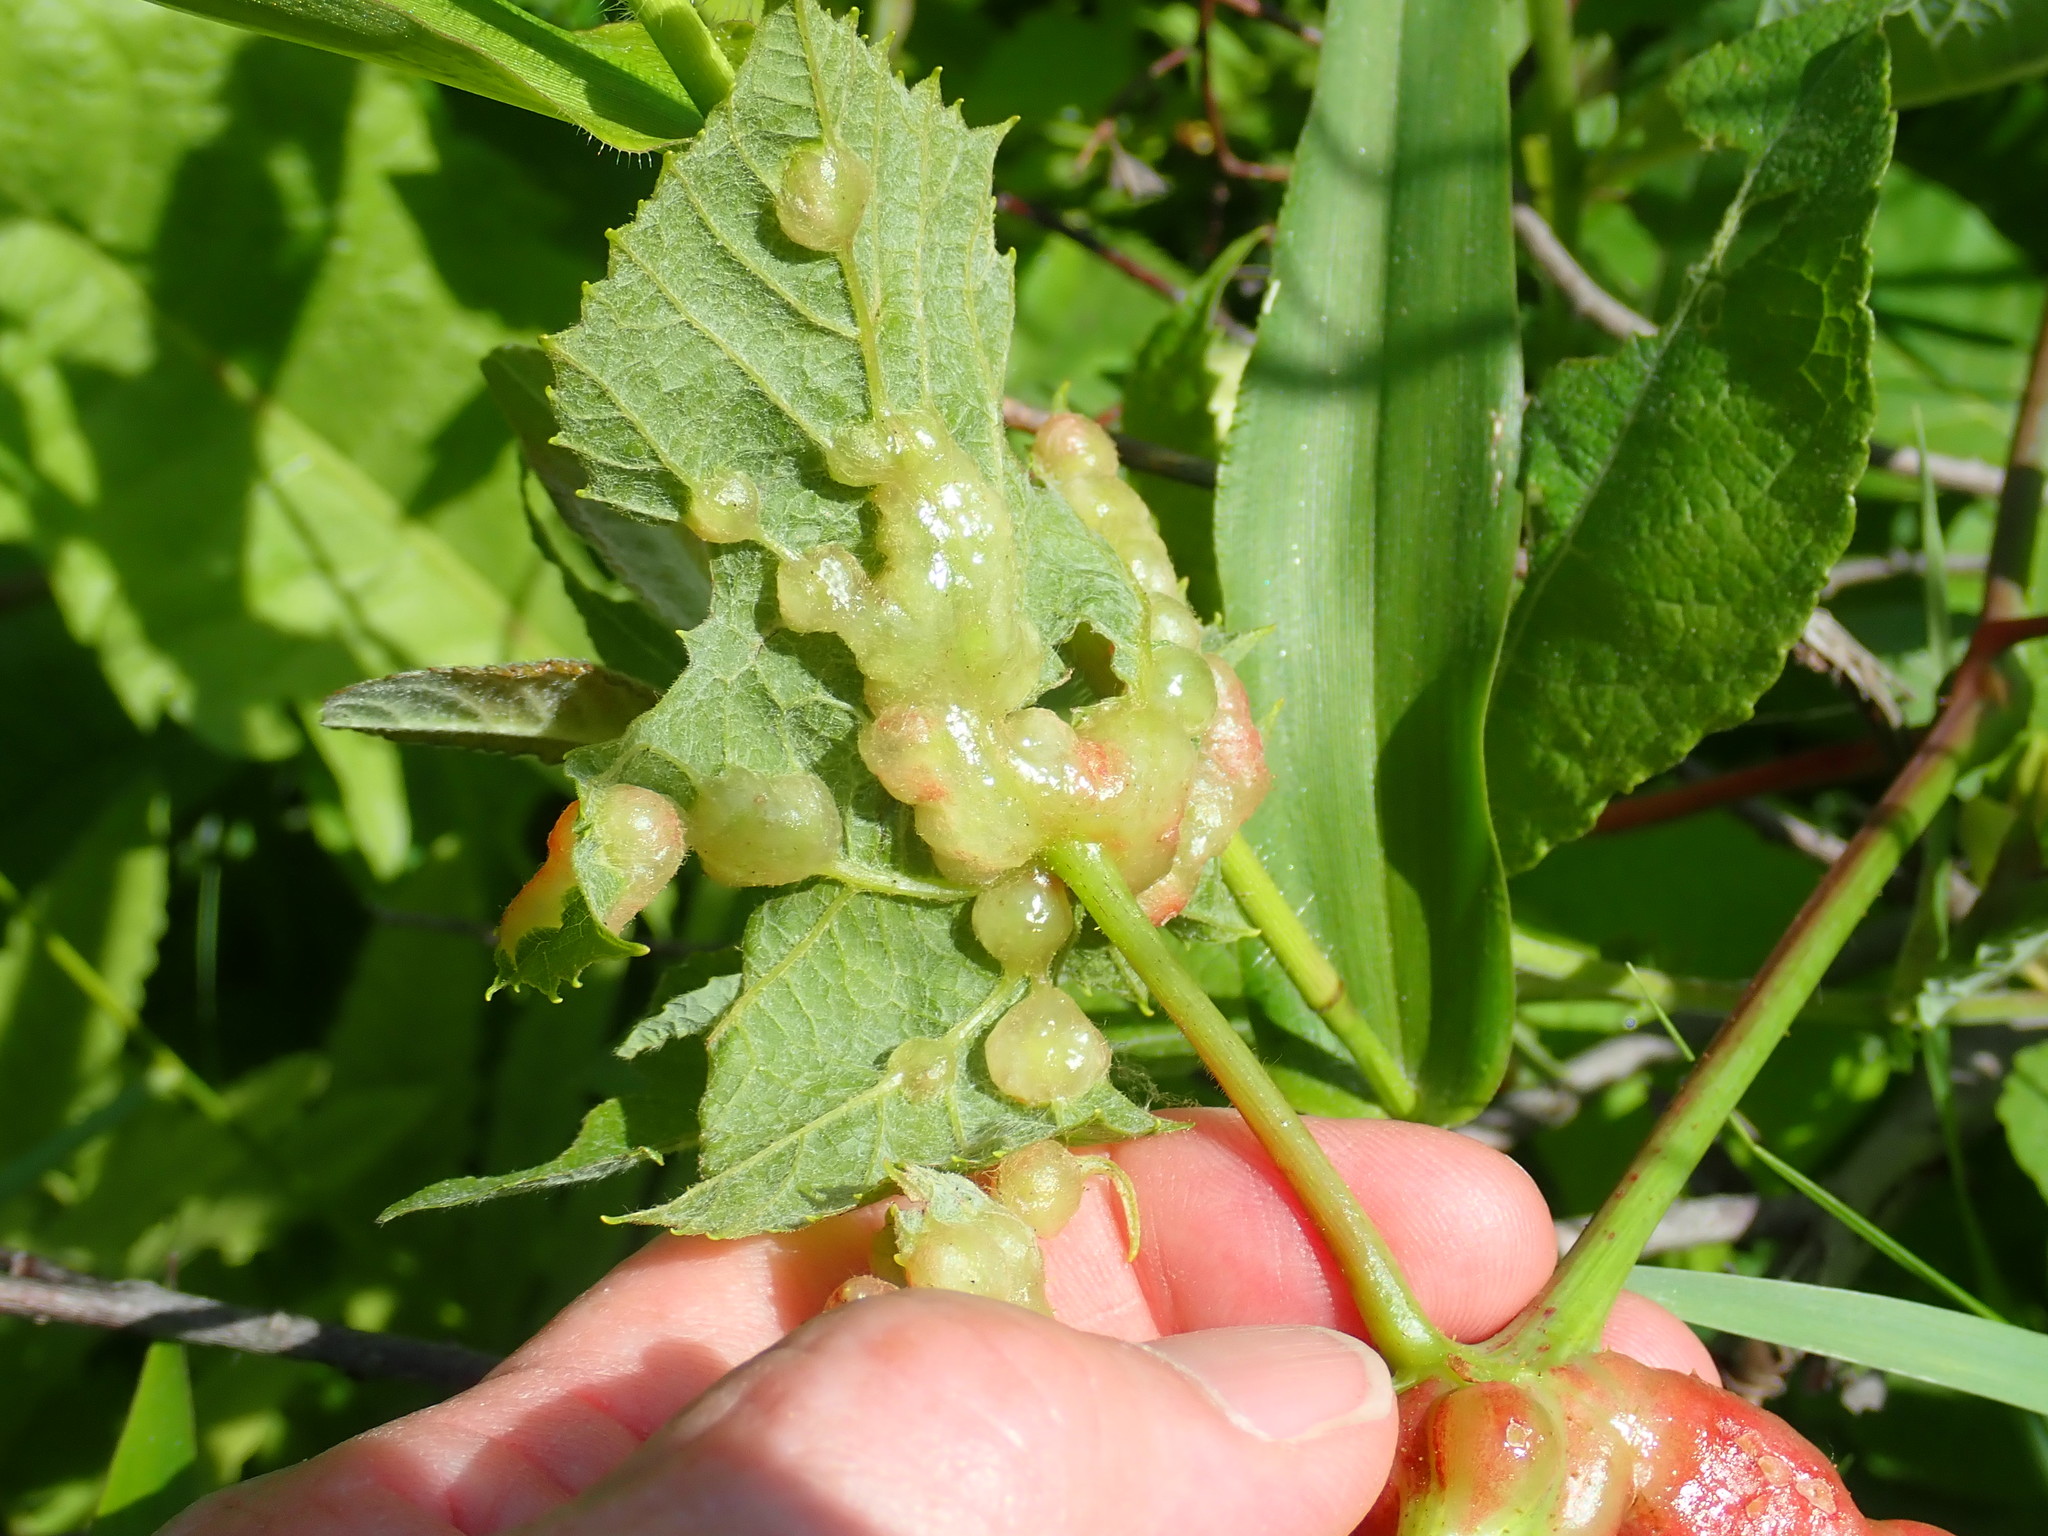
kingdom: Animalia
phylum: Arthropoda
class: Insecta
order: Diptera
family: Cecidomyiidae
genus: Vitisiella
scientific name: Vitisiella brevicauda
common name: Grape tumid gallmaker midge
